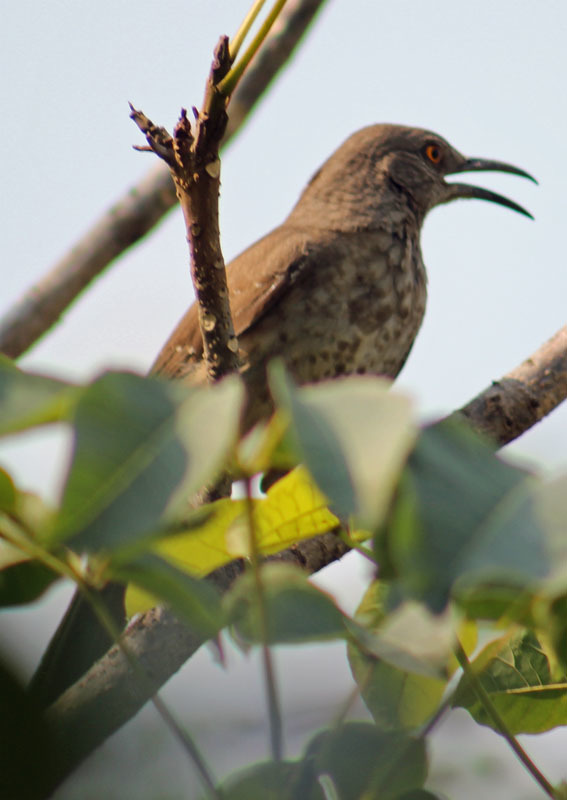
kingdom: Animalia
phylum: Chordata
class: Aves
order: Passeriformes
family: Mimidae
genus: Toxostoma
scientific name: Toxostoma curvirostre
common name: Curve-billed thrasher
